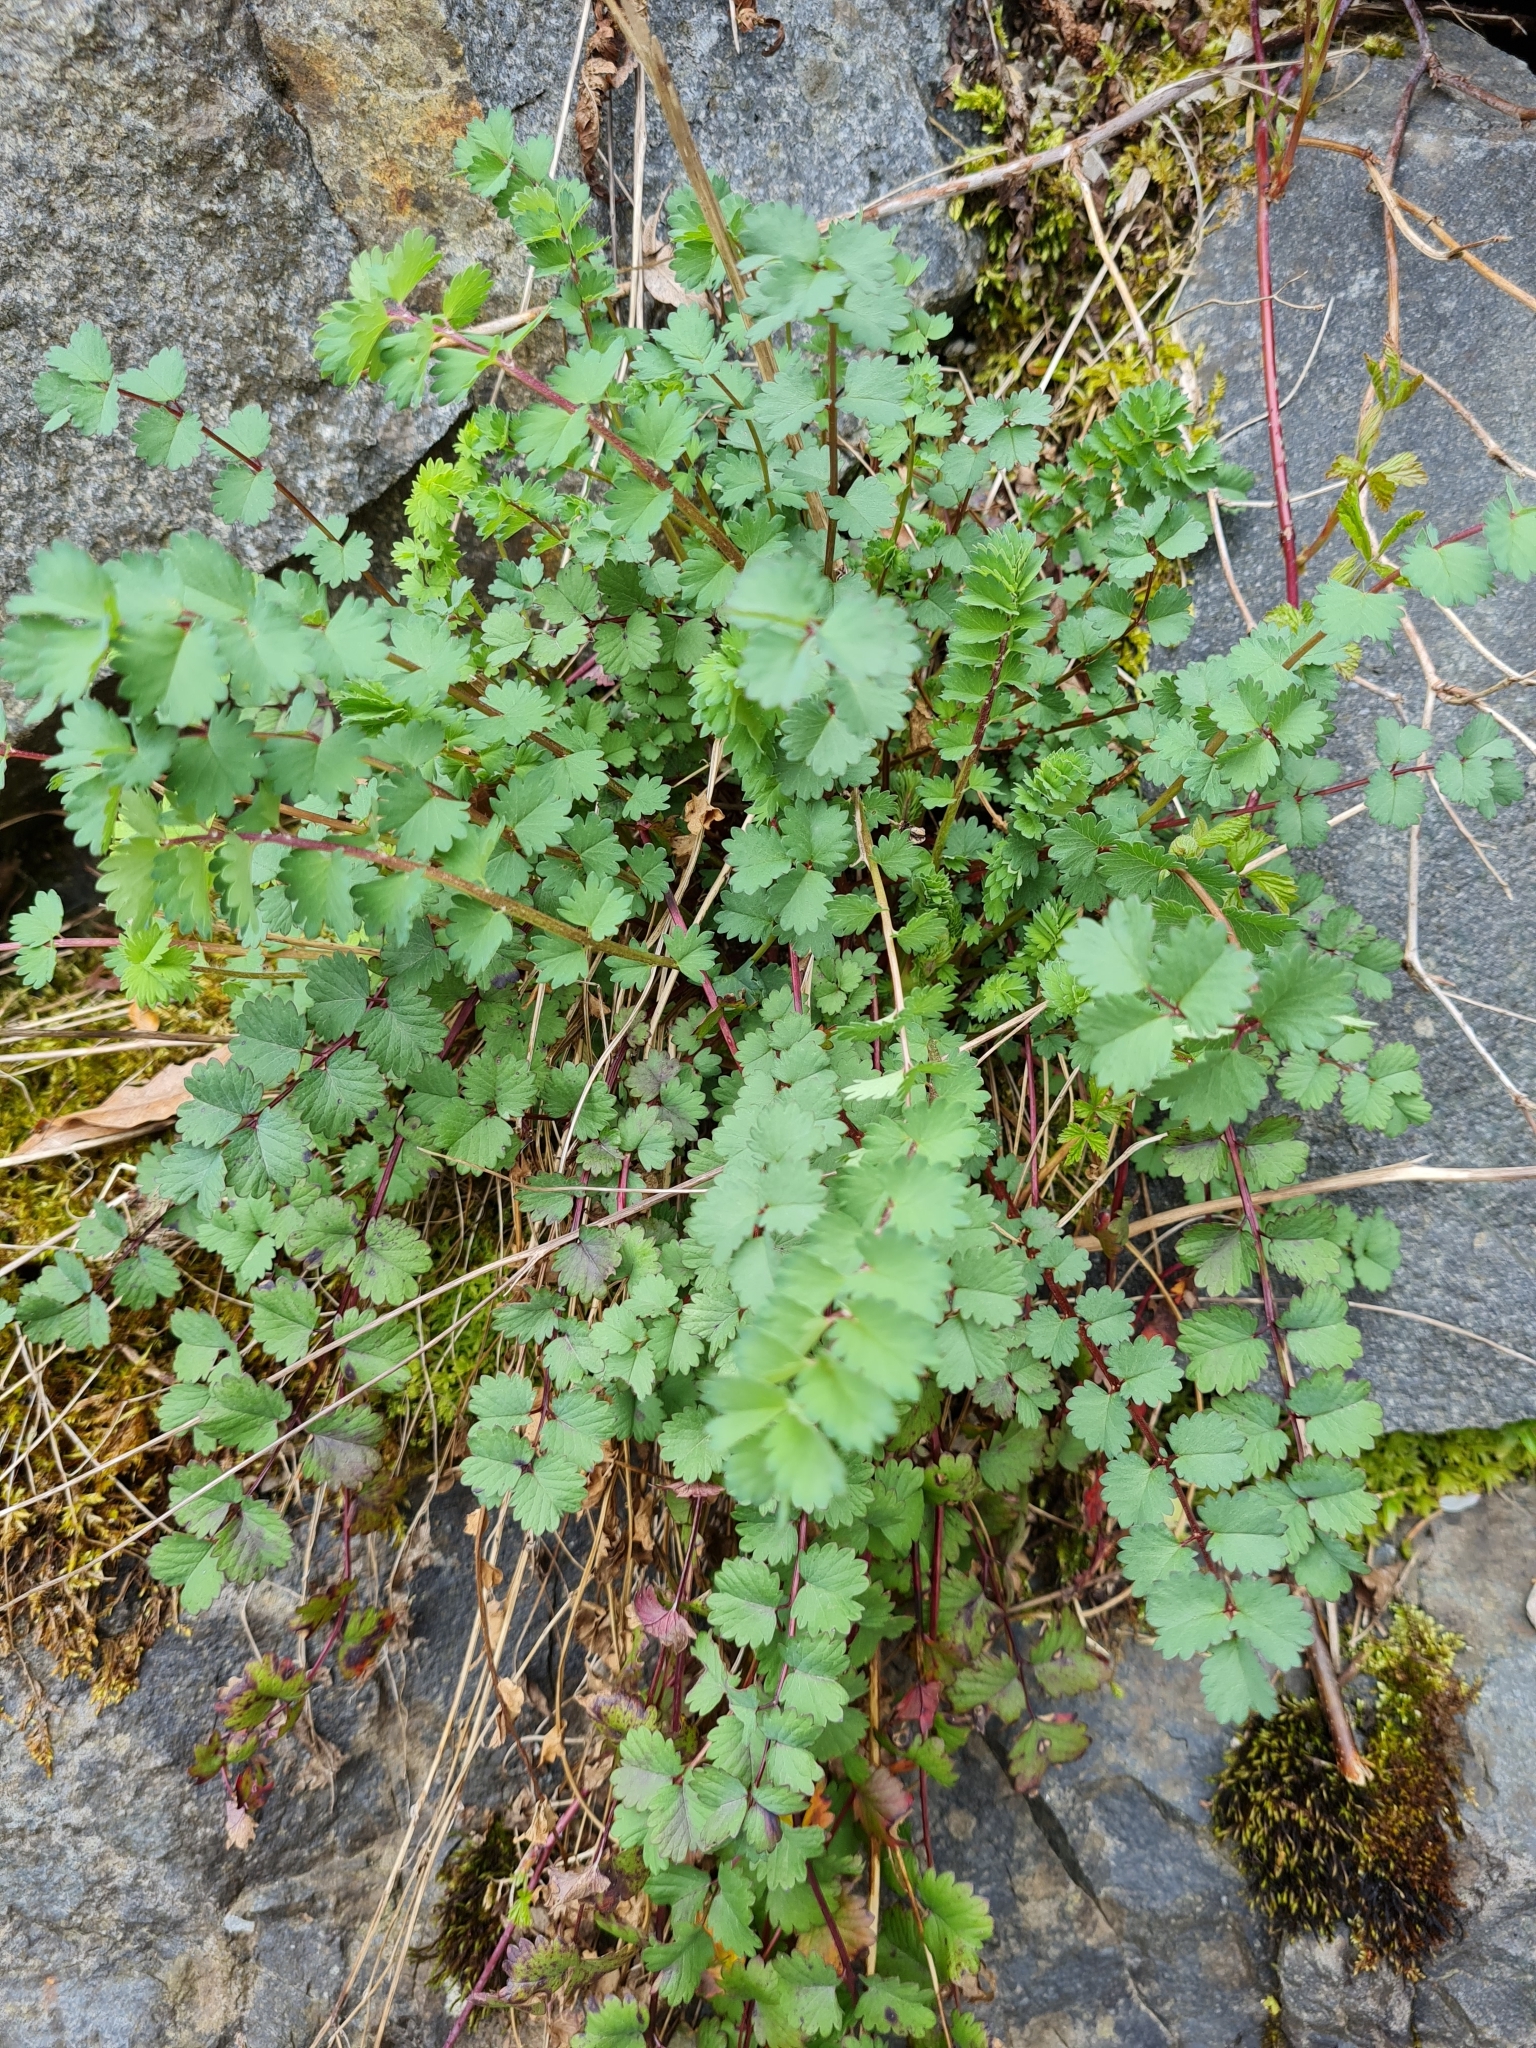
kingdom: Plantae
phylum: Tracheophyta
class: Magnoliopsida
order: Rosales
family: Rosaceae
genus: Poterium
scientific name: Poterium sanguisorba
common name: Salad burnet
